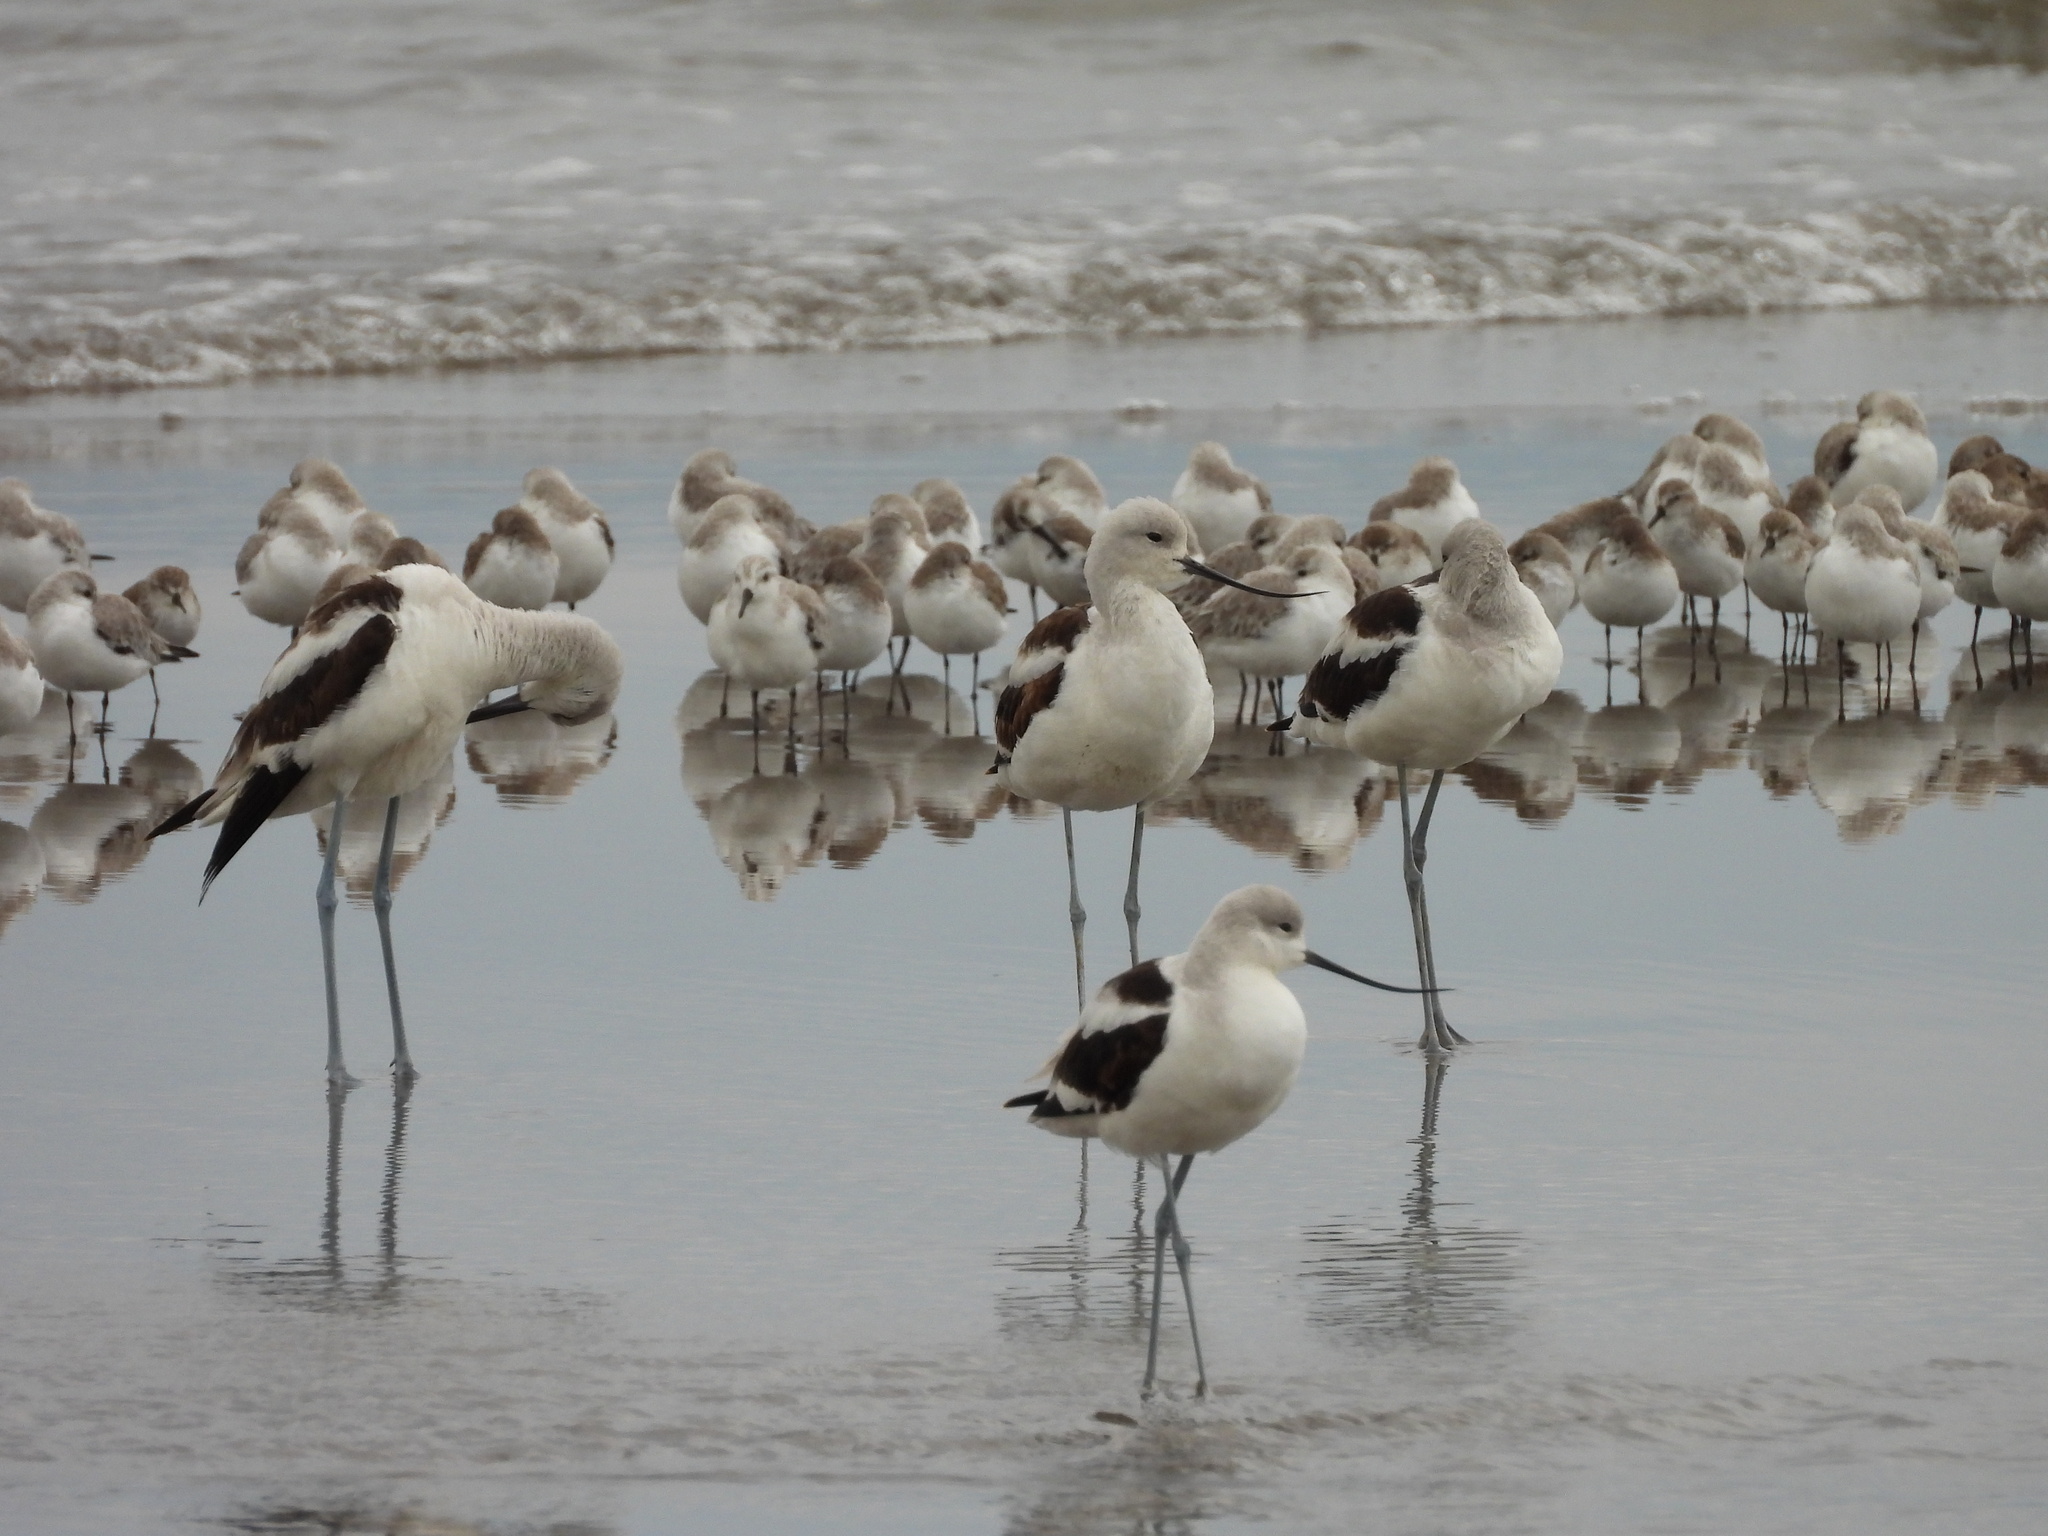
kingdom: Animalia
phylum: Chordata
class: Aves
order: Charadriiformes
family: Recurvirostridae
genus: Recurvirostra
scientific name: Recurvirostra americana
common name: American avocet
